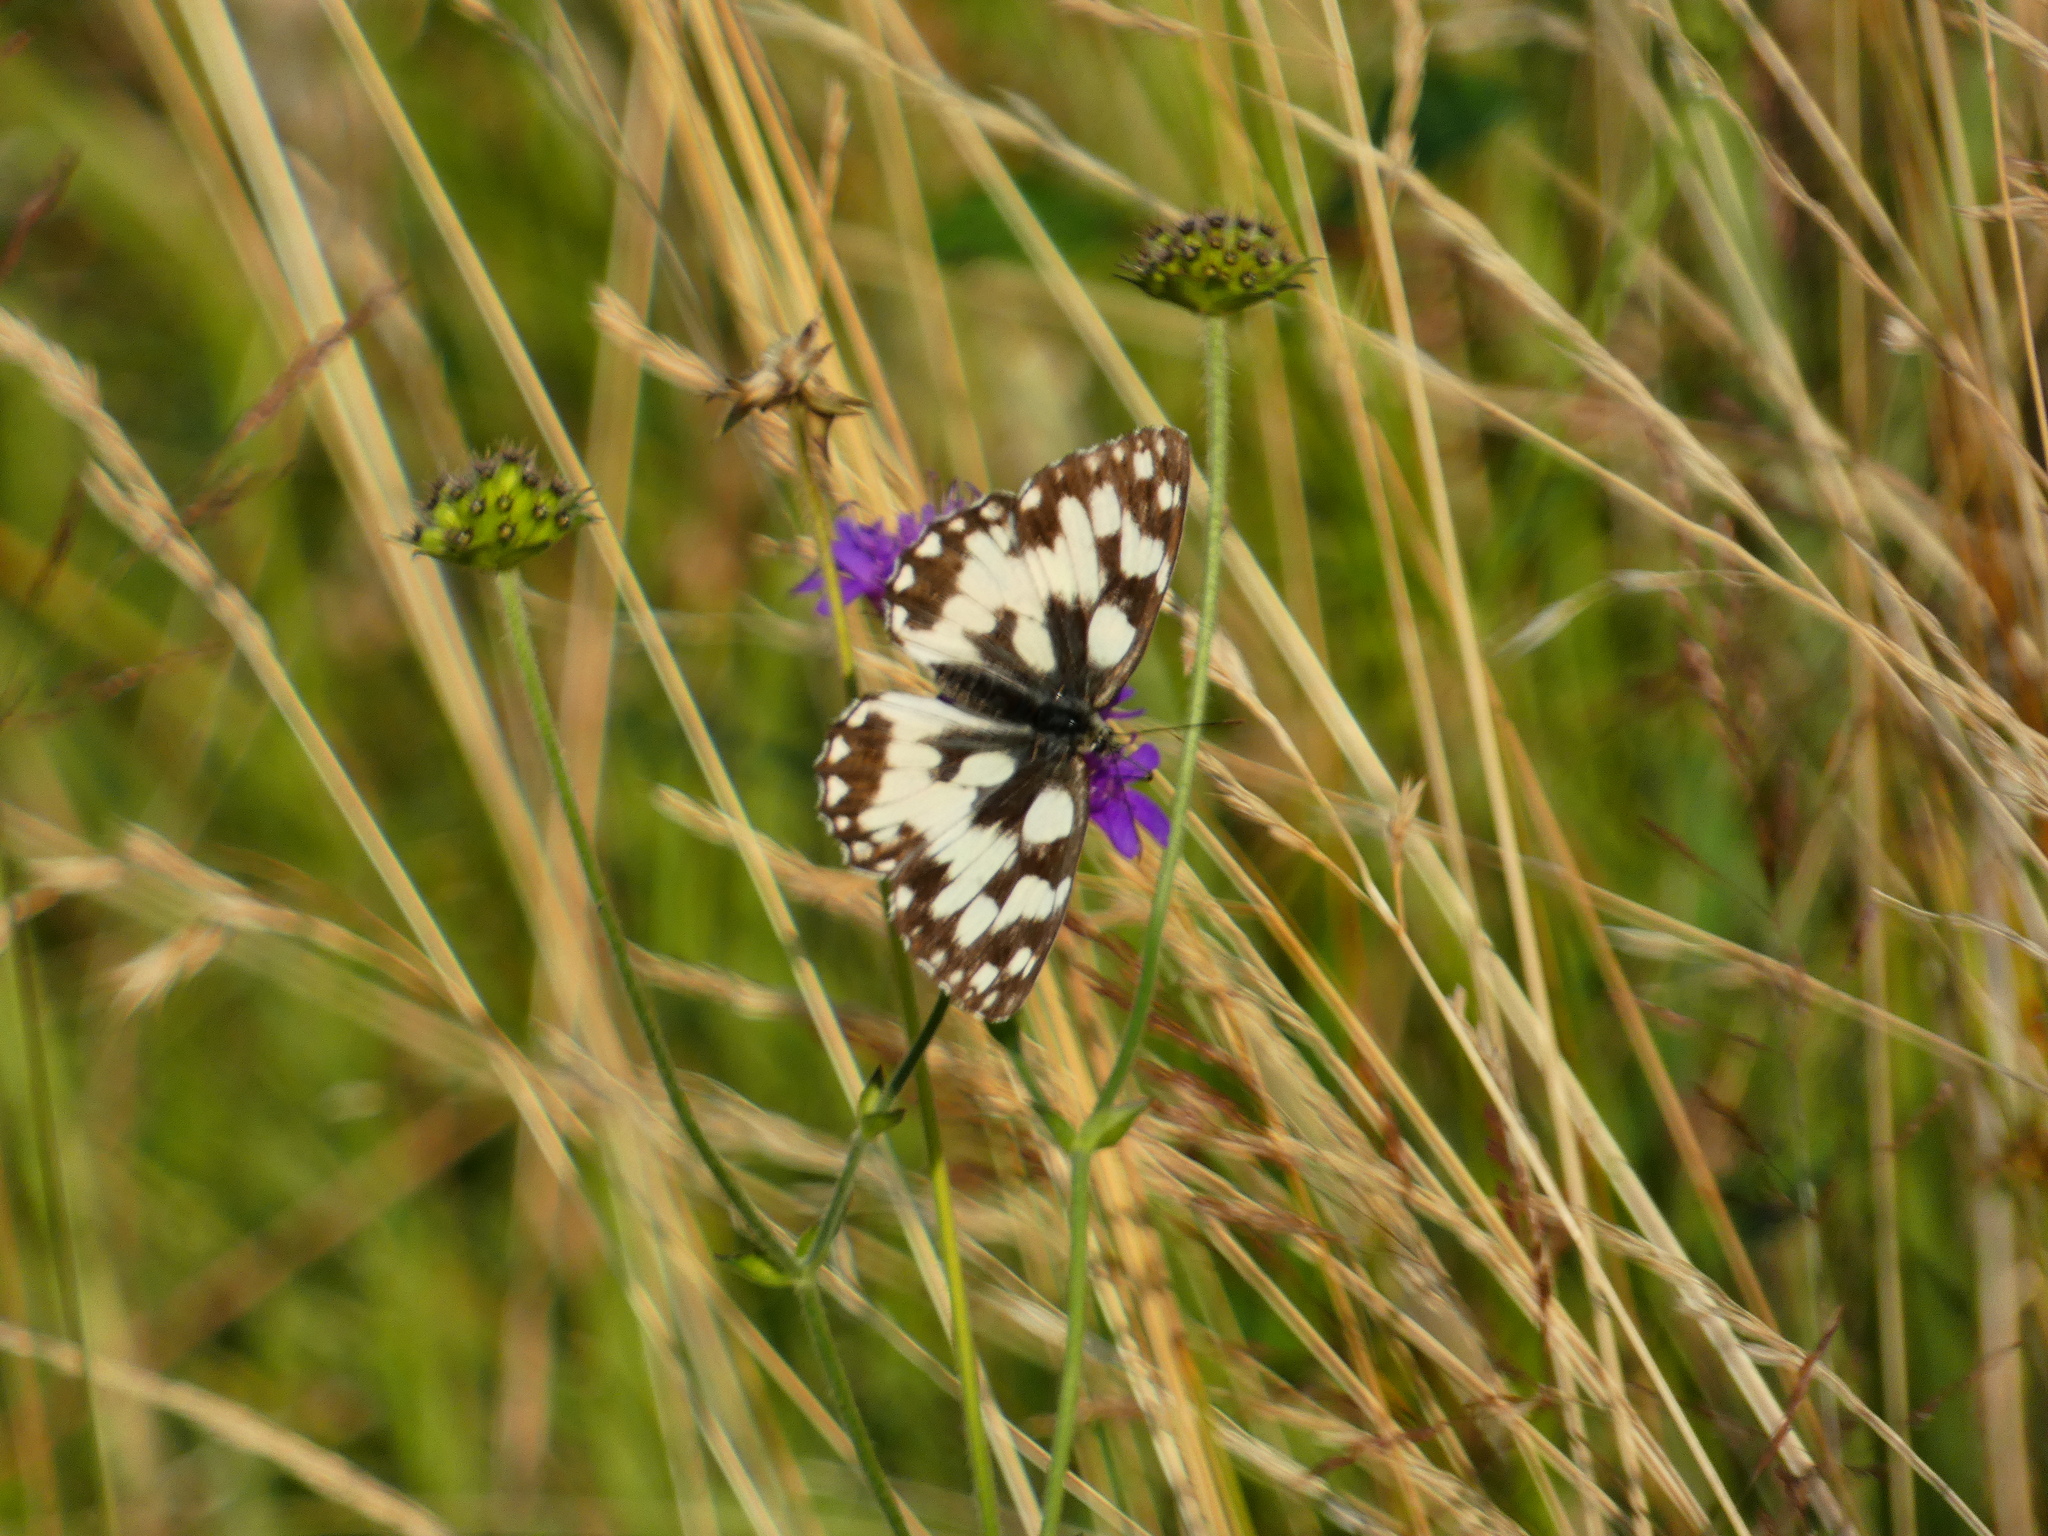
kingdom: Animalia
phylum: Arthropoda
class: Insecta
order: Lepidoptera
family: Nymphalidae
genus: Melanargia
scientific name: Melanargia galathea
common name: Marbled white
